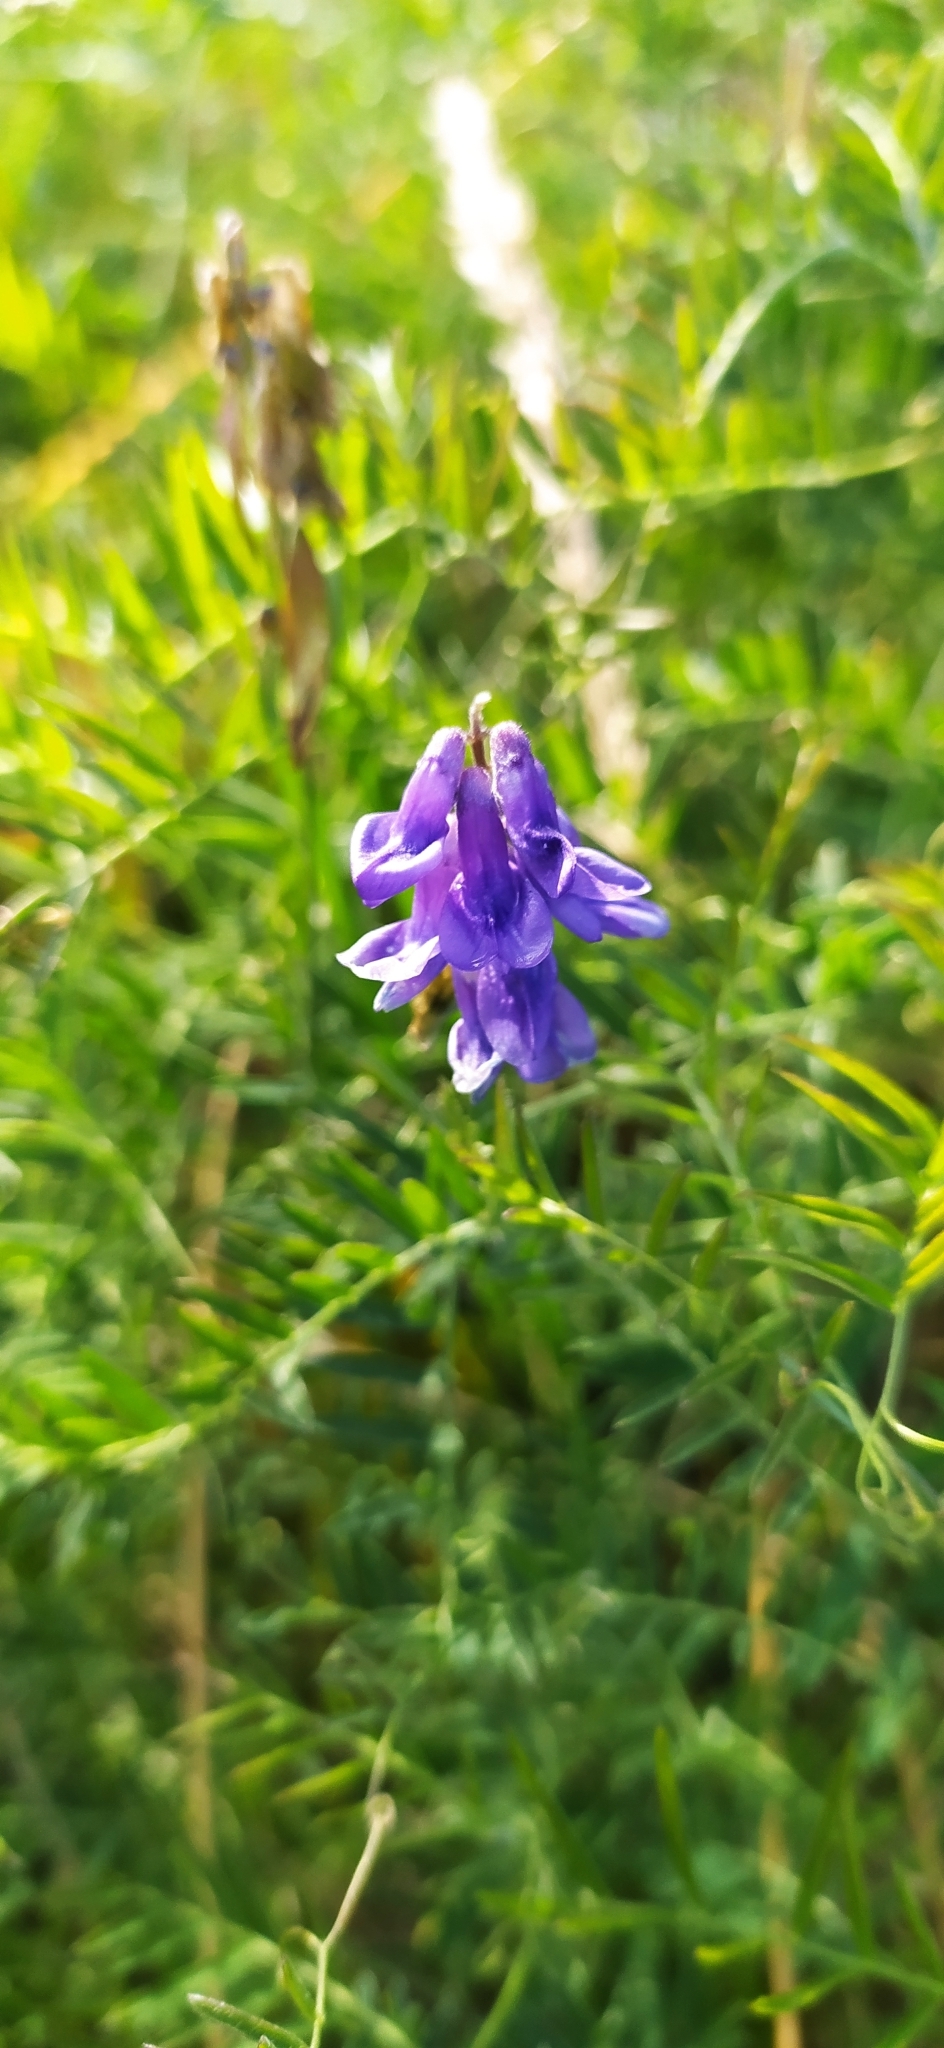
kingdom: Plantae
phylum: Tracheophyta
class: Magnoliopsida
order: Fabales
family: Fabaceae
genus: Vicia
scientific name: Vicia cracca
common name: Bird vetch
